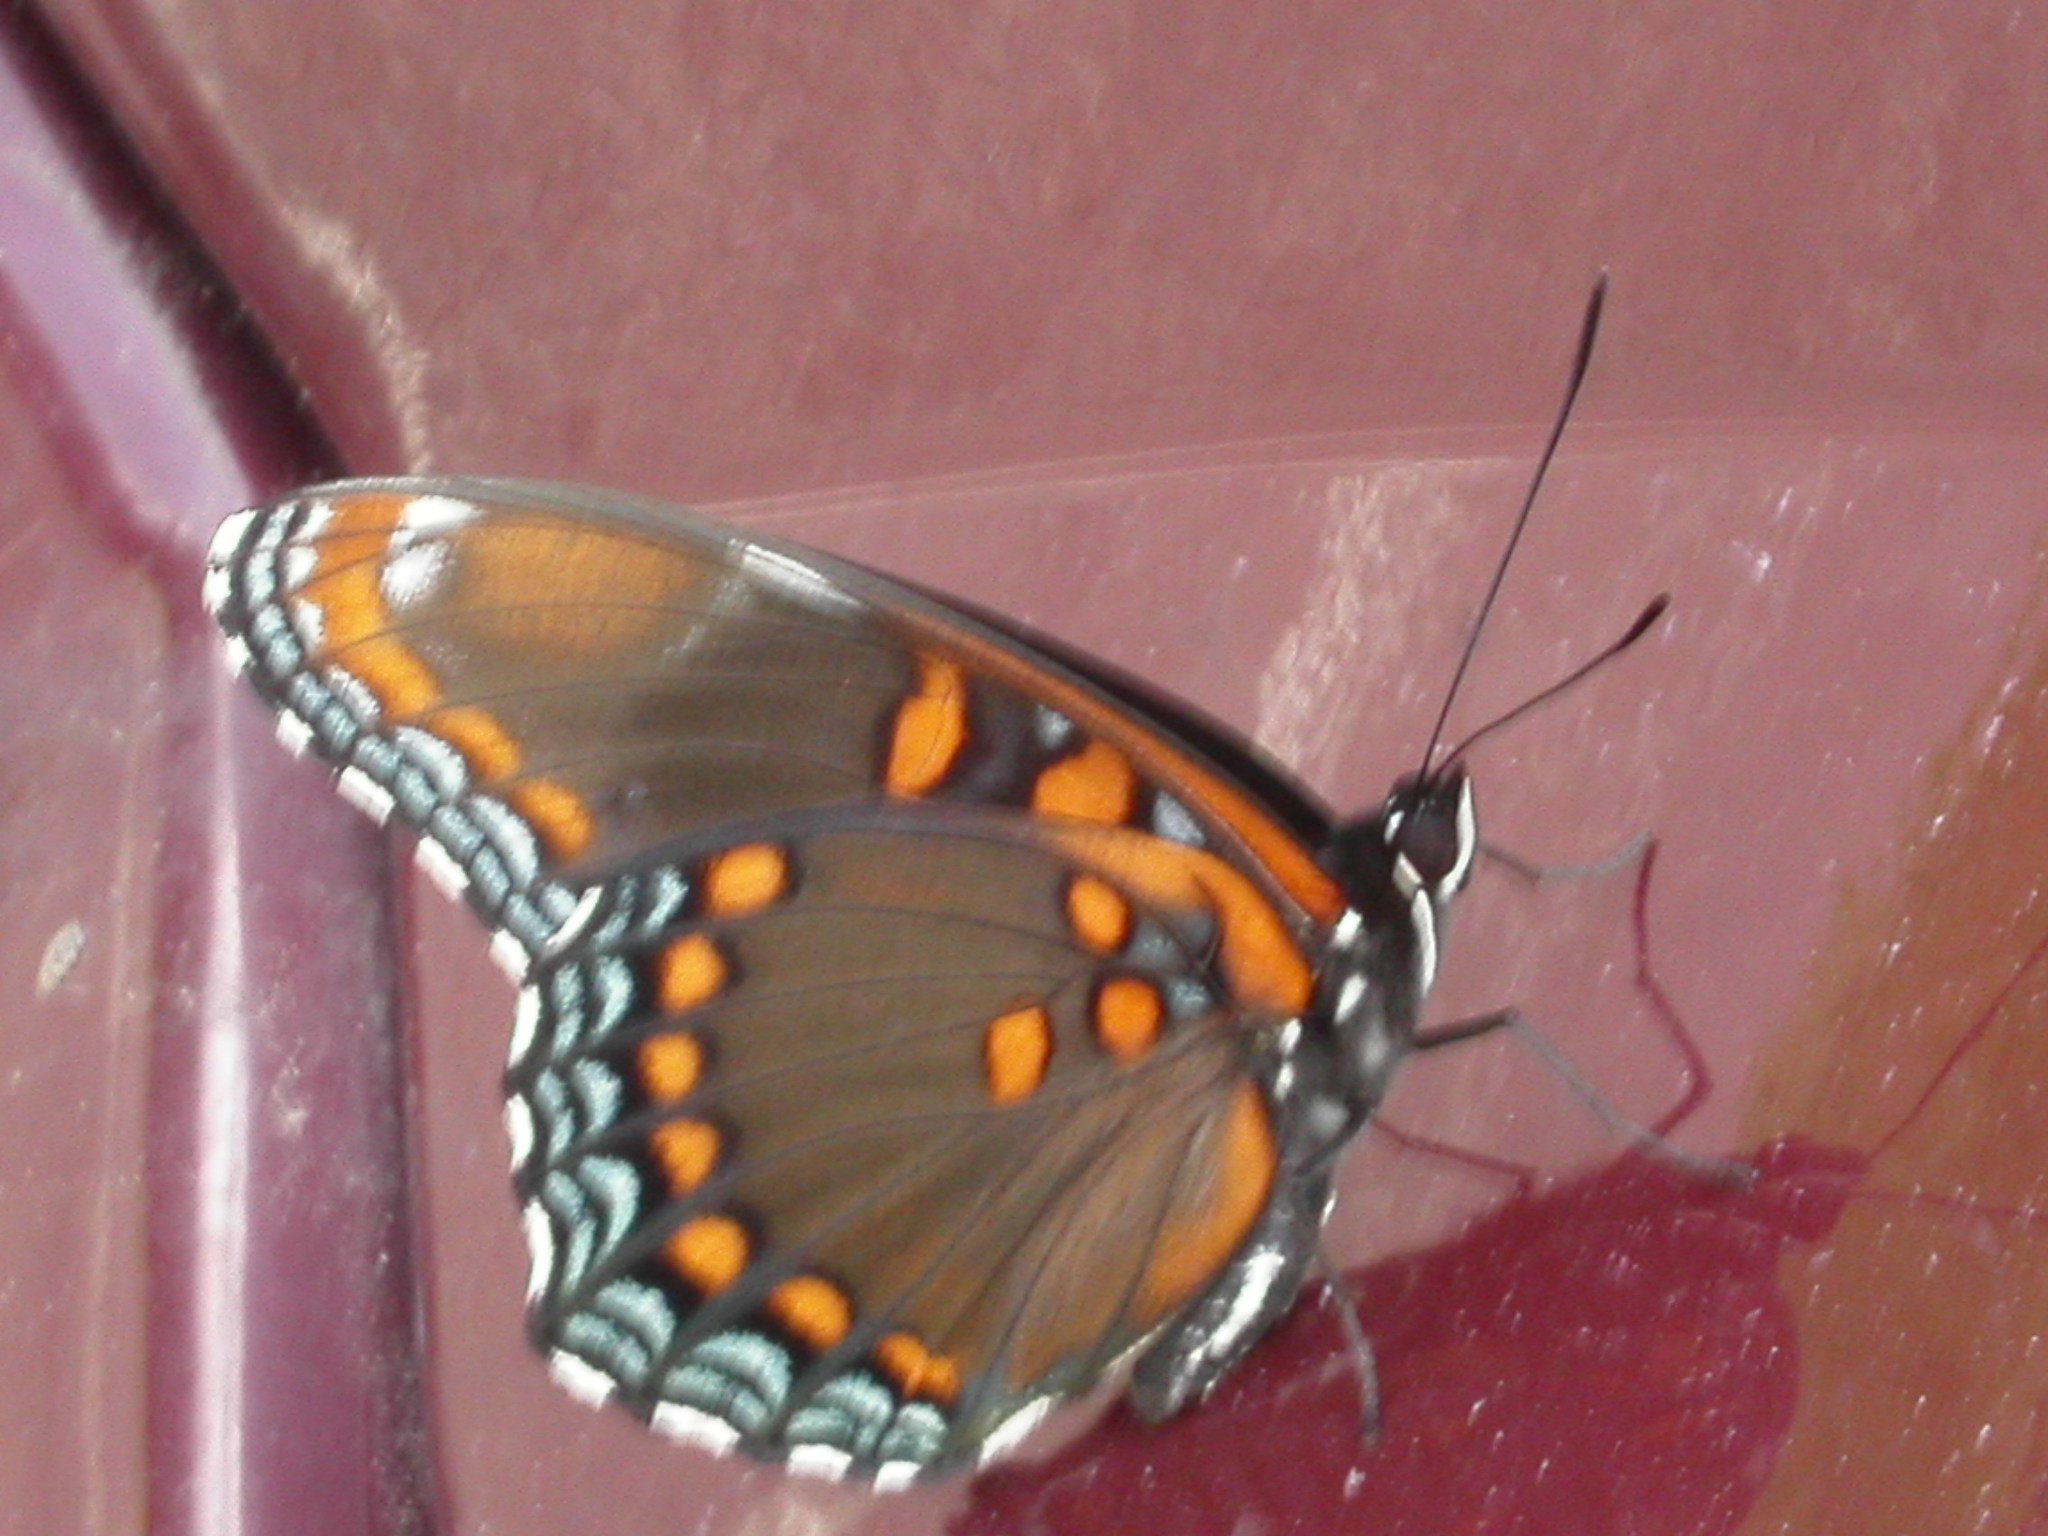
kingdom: Animalia
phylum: Arthropoda
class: Insecta
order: Lepidoptera
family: Nymphalidae
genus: Limenitis
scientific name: Limenitis astyanax
